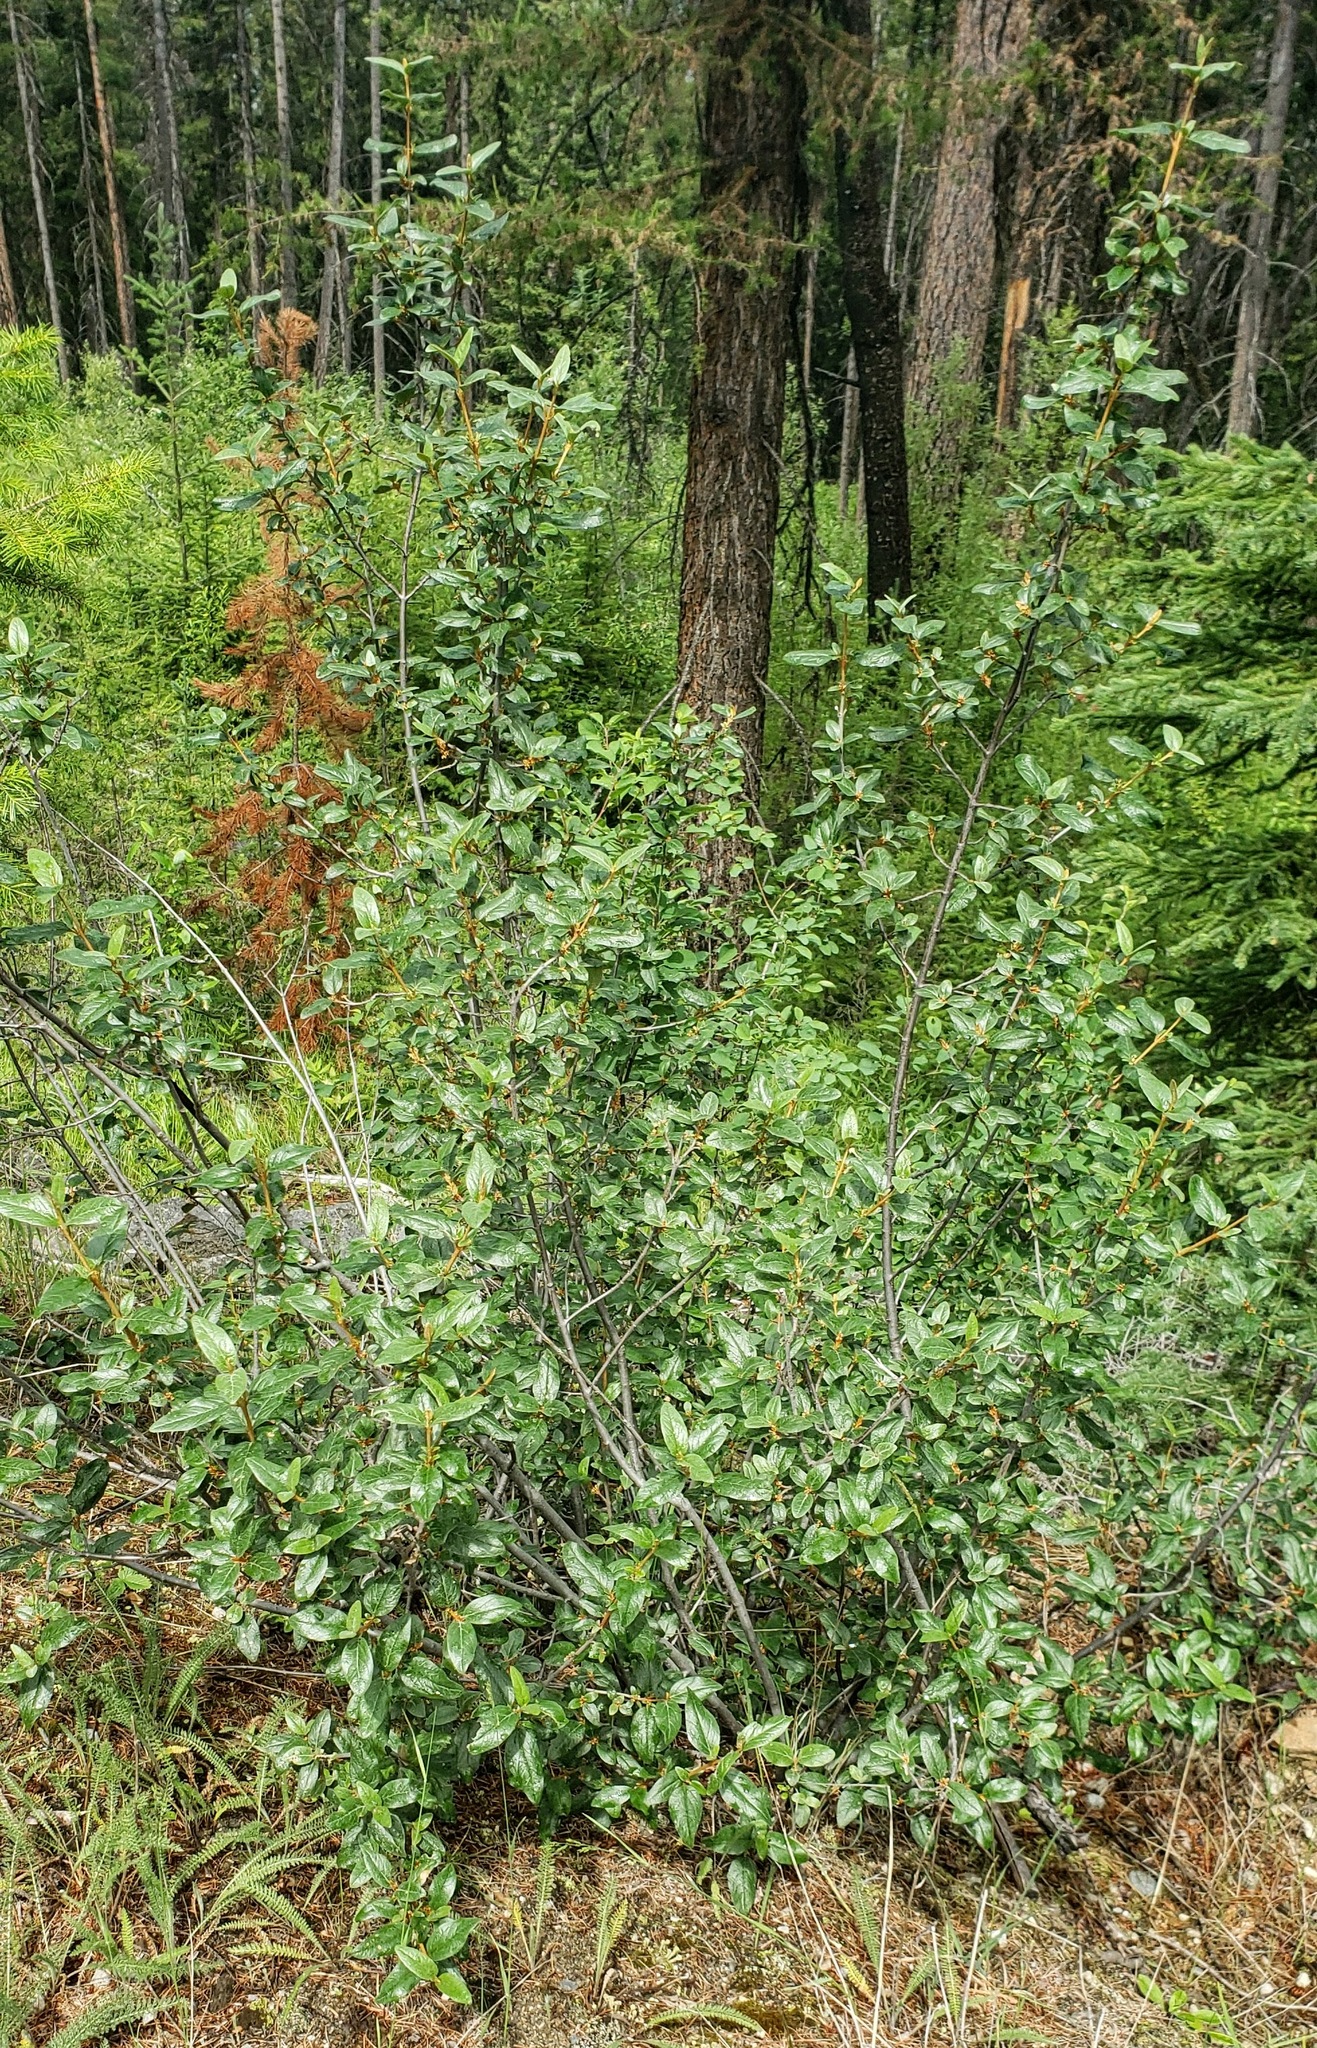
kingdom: Plantae
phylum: Tracheophyta
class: Magnoliopsida
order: Rosales
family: Elaeagnaceae
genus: Shepherdia
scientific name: Shepherdia canadensis
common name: Soapberry
